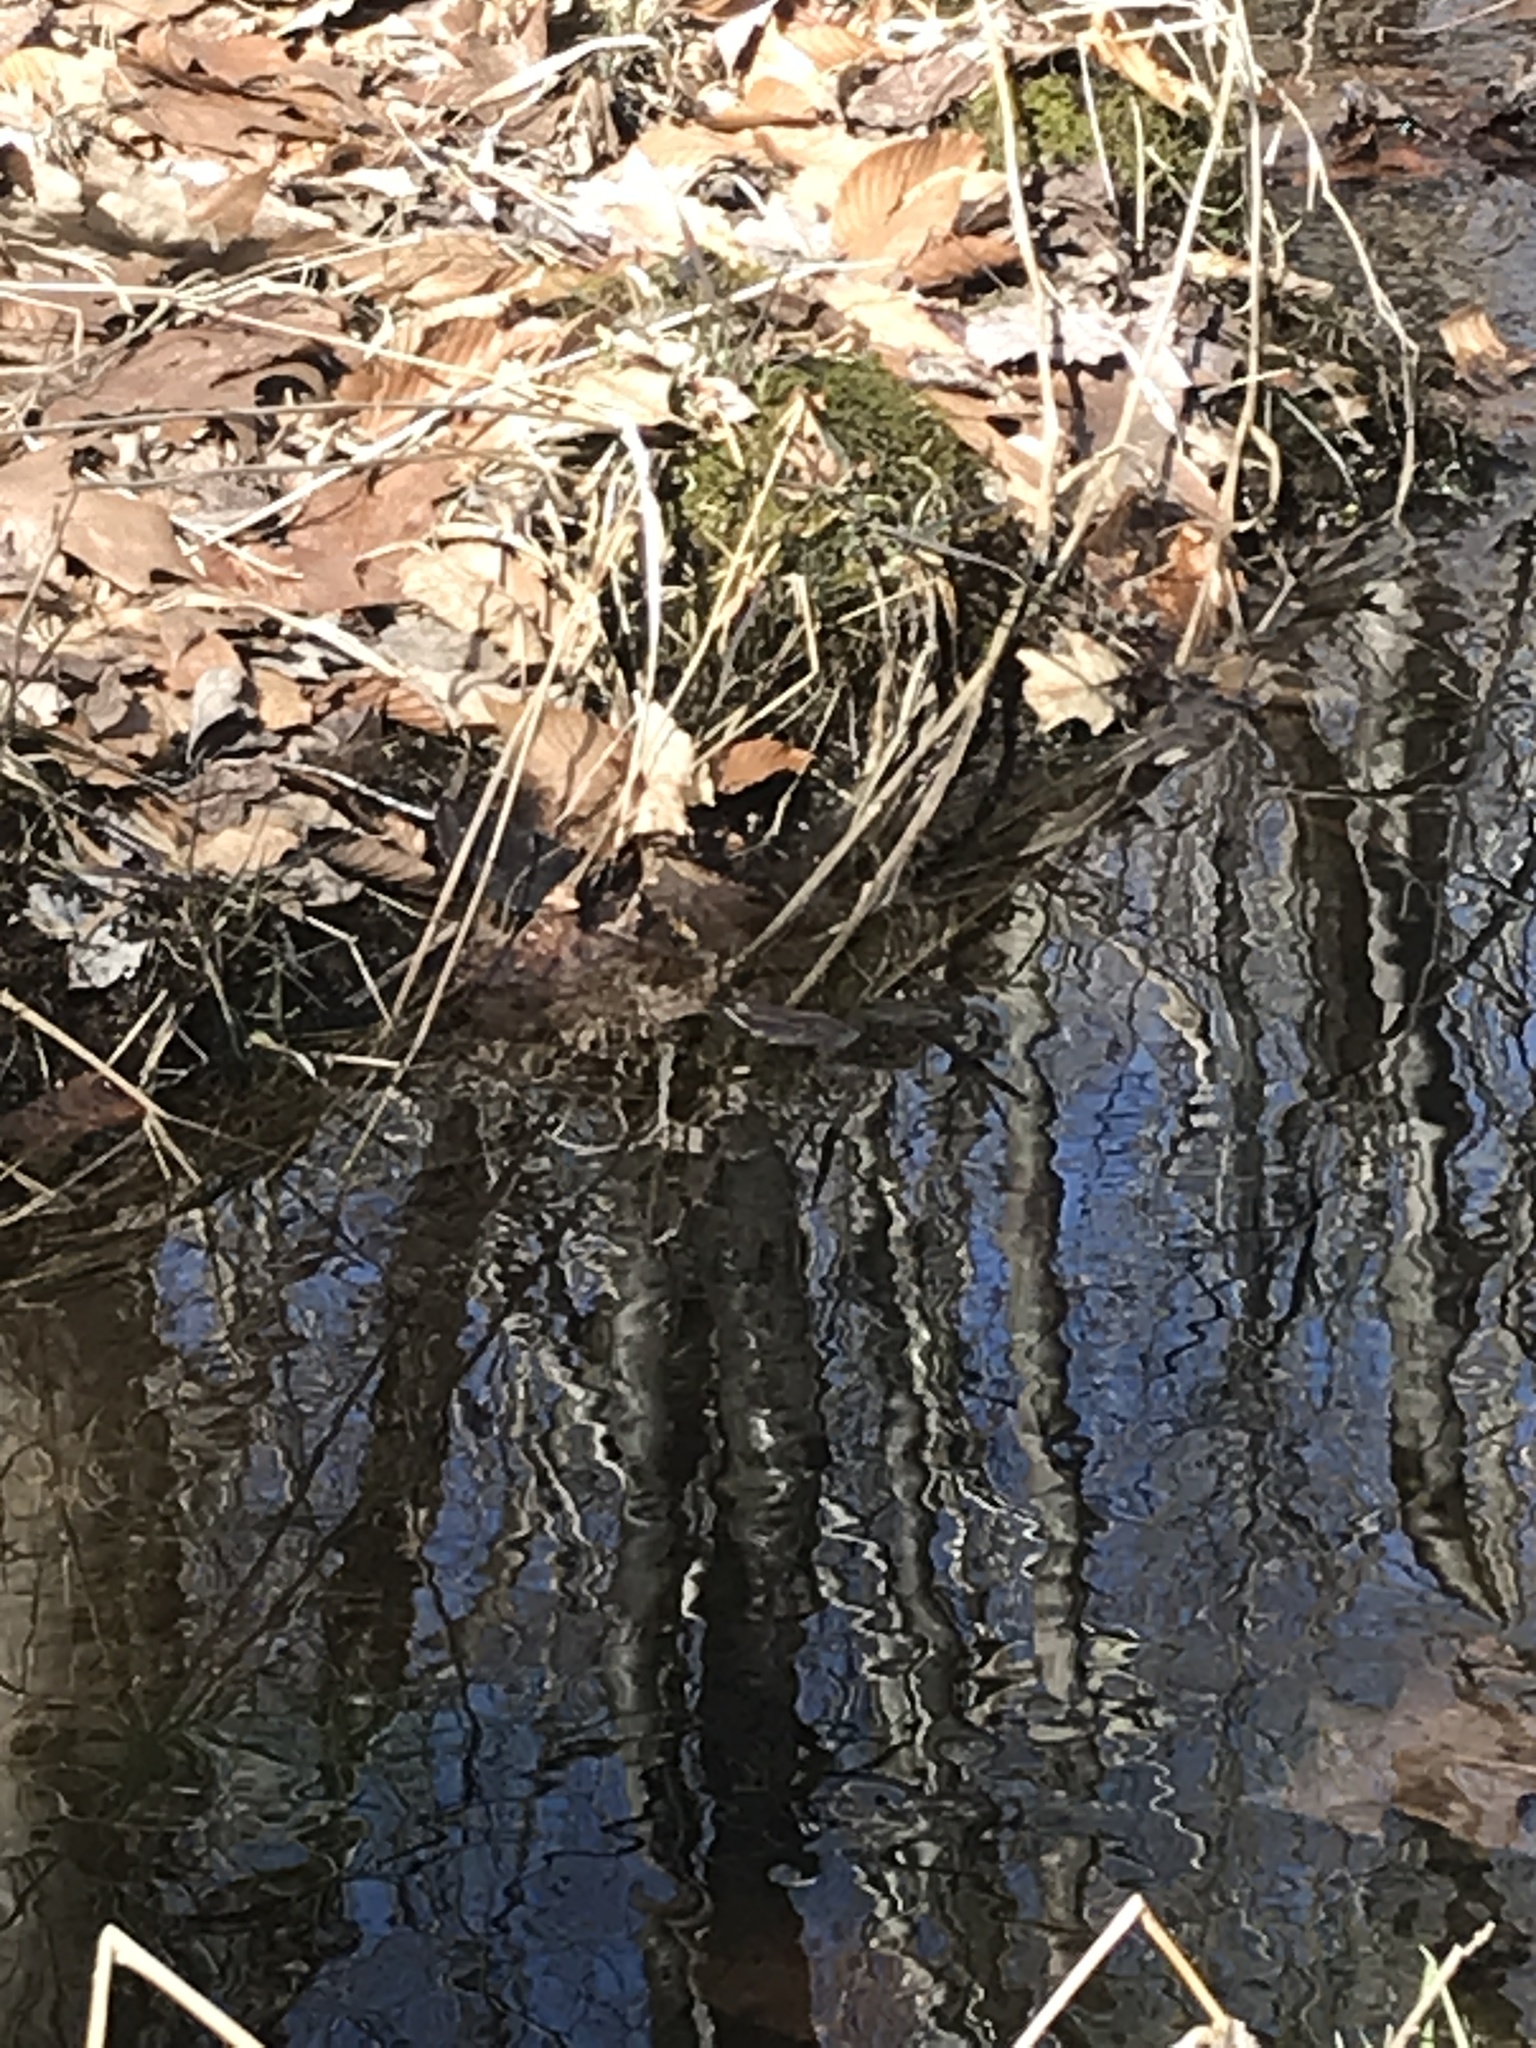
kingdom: Animalia
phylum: Chordata
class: Amphibia
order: Anura
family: Ranidae
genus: Lithobates
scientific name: Lithobates sylvaticus
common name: Wood frog
